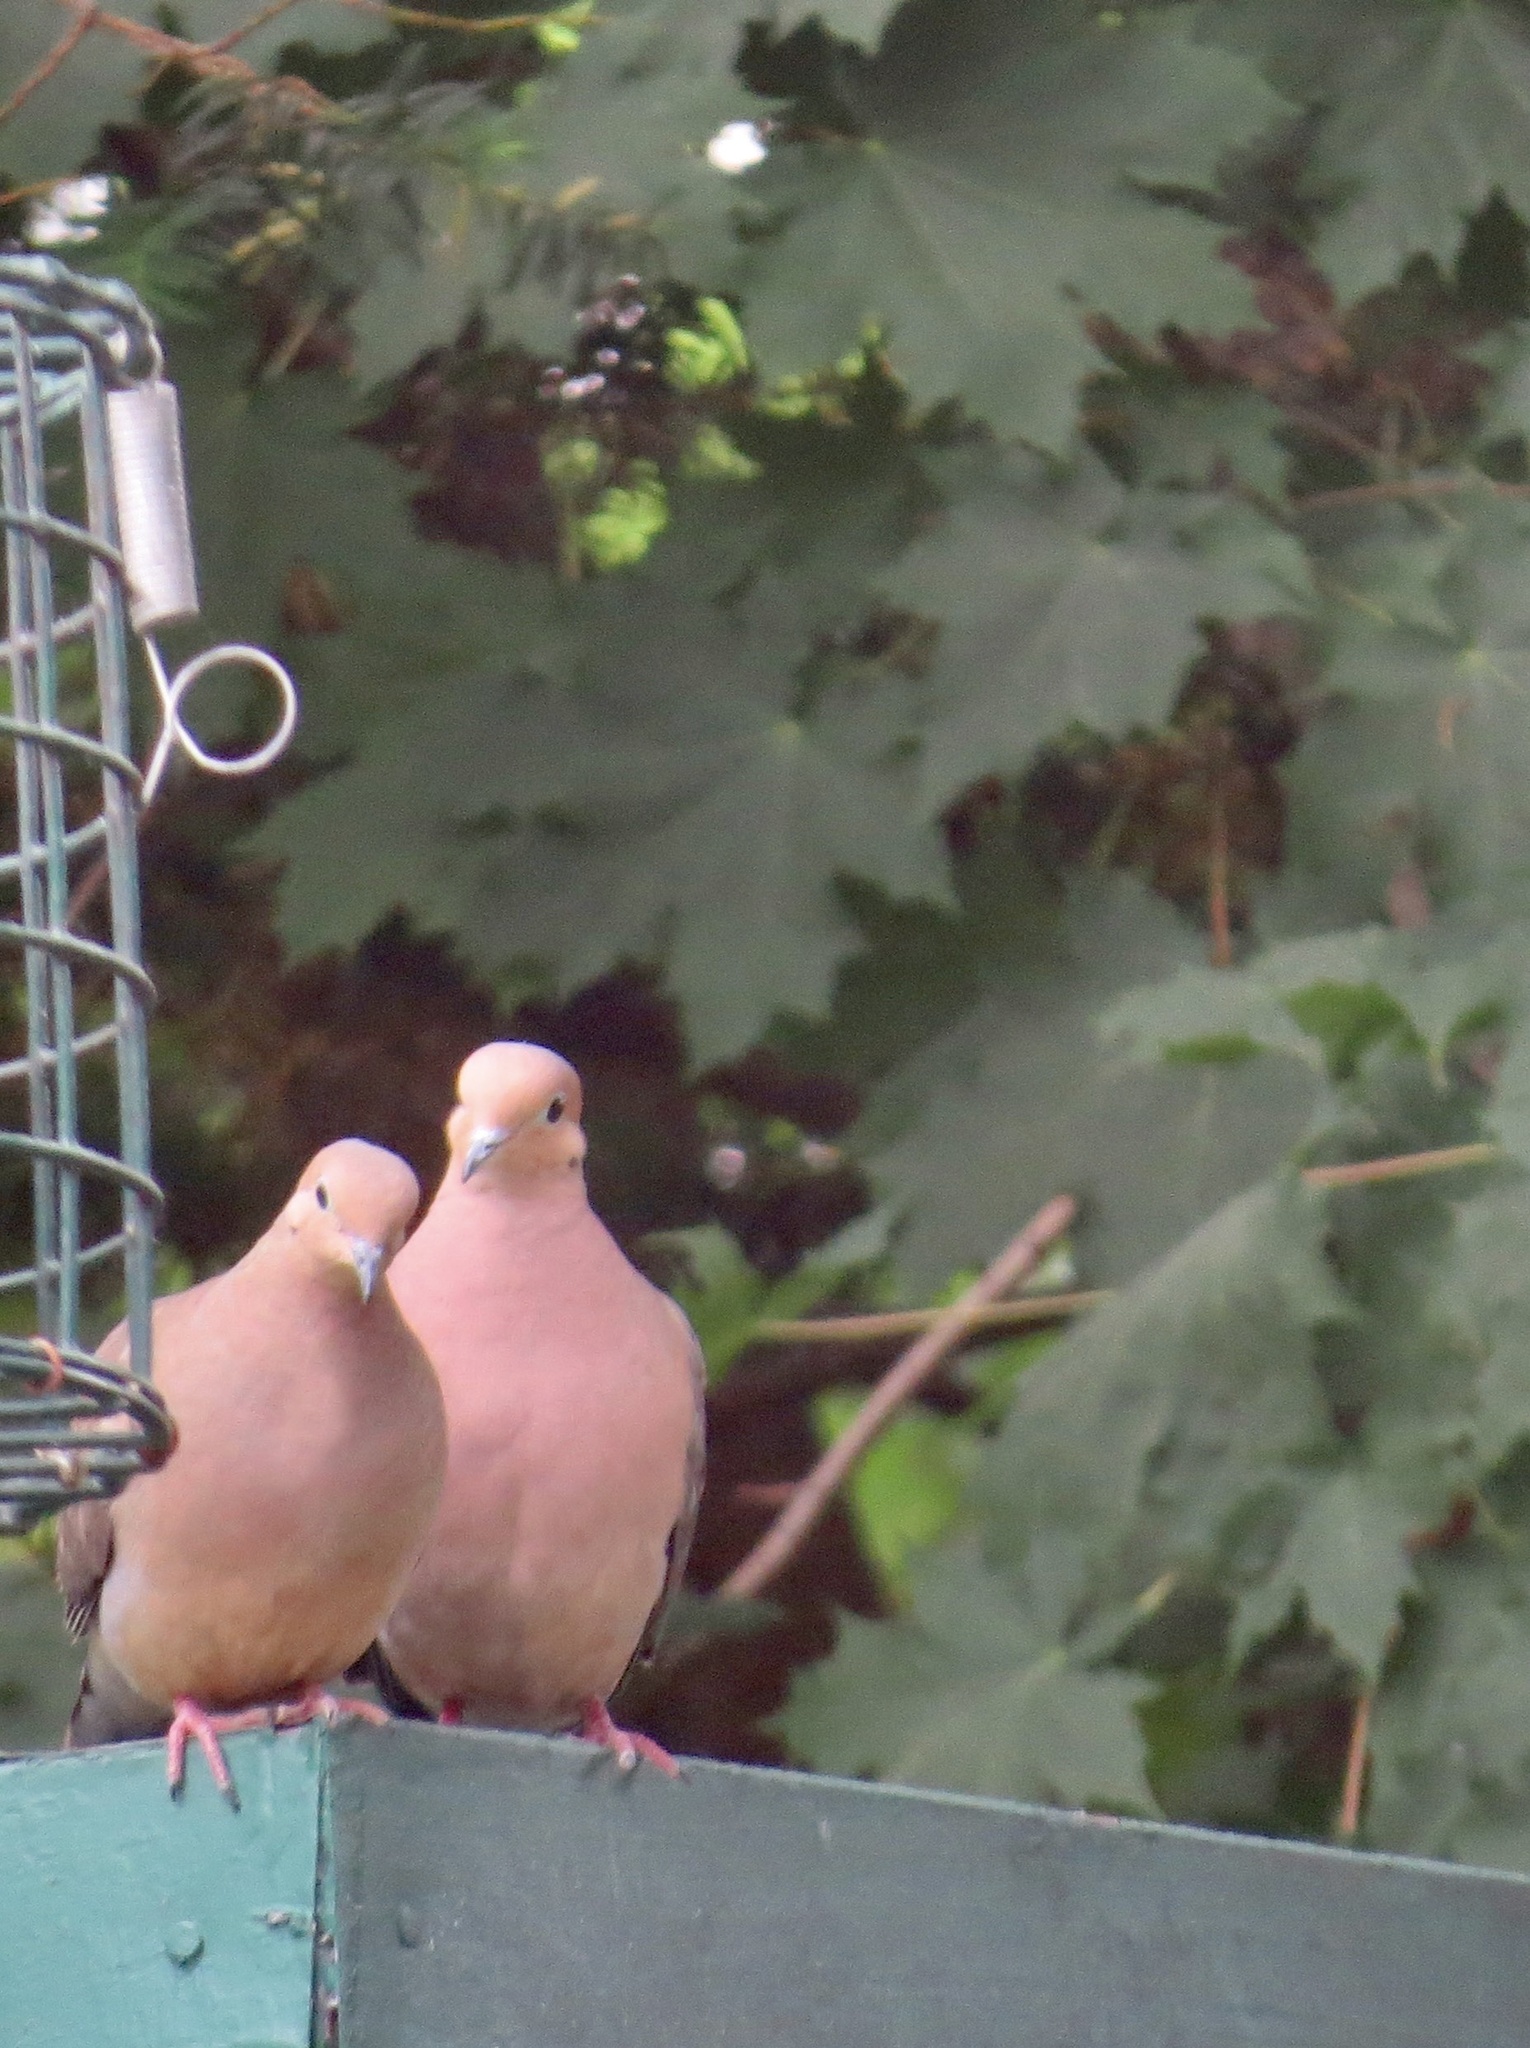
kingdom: Animalia
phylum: Chordata
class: Aves
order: Columbiformes
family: Columbidae
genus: Zenaida
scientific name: Zenaida macroura
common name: Mourning dove
